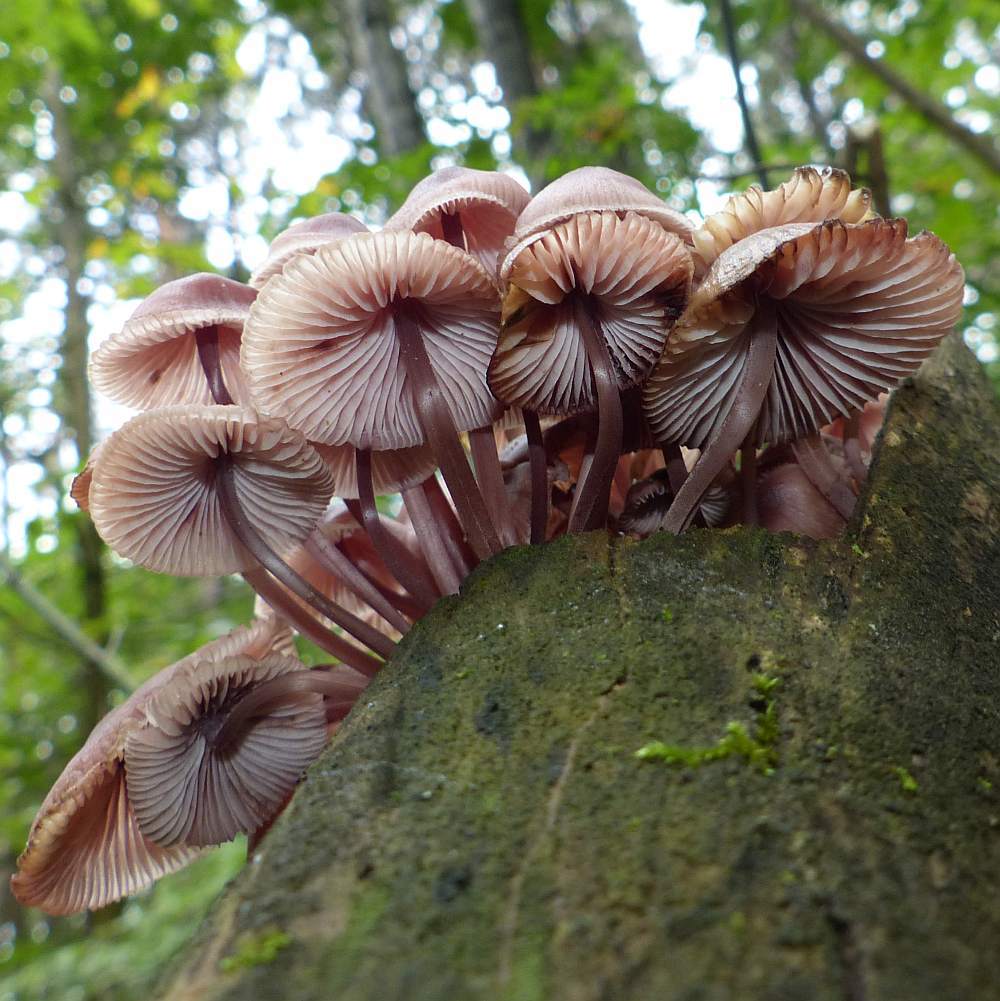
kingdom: Fungi
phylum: Basidiomycota
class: Agaricomycetes
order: Agaricales
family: Mycenaceae
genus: Mycena
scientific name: Mycena haematopus
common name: Burgundydrop bonnet
